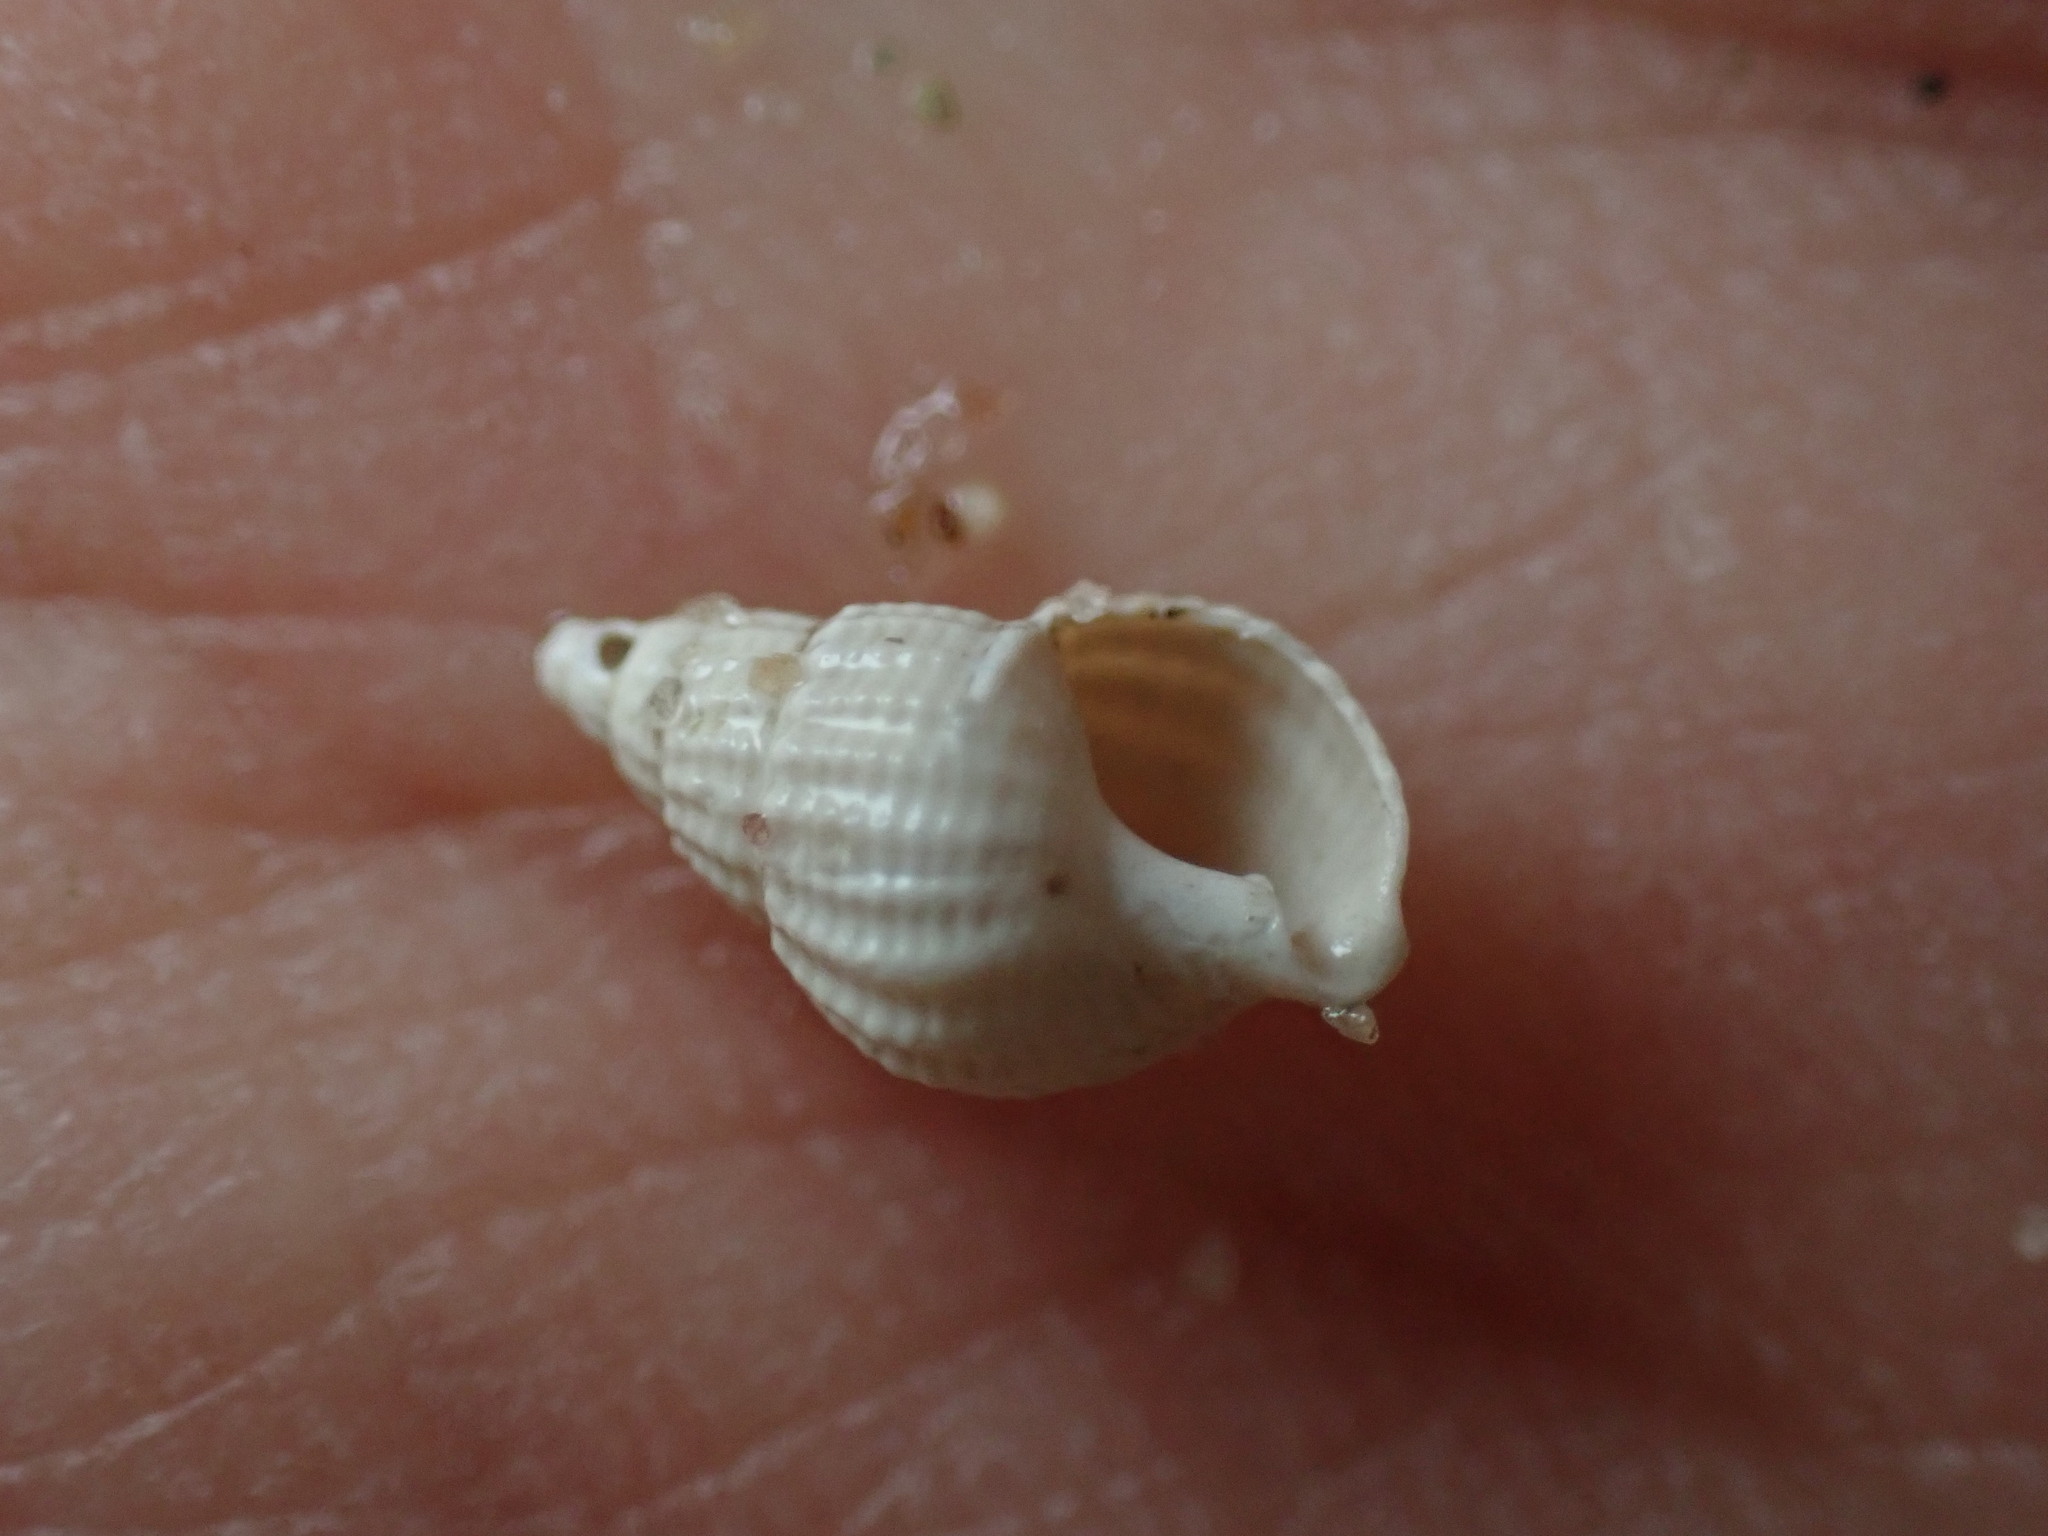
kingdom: Animalia
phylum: Mollusca
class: Gastropoda
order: Neogastropoda
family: Nassariidae
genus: Ilyanassa
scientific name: Ilyanassa trivittata
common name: Three-line mudsnail
